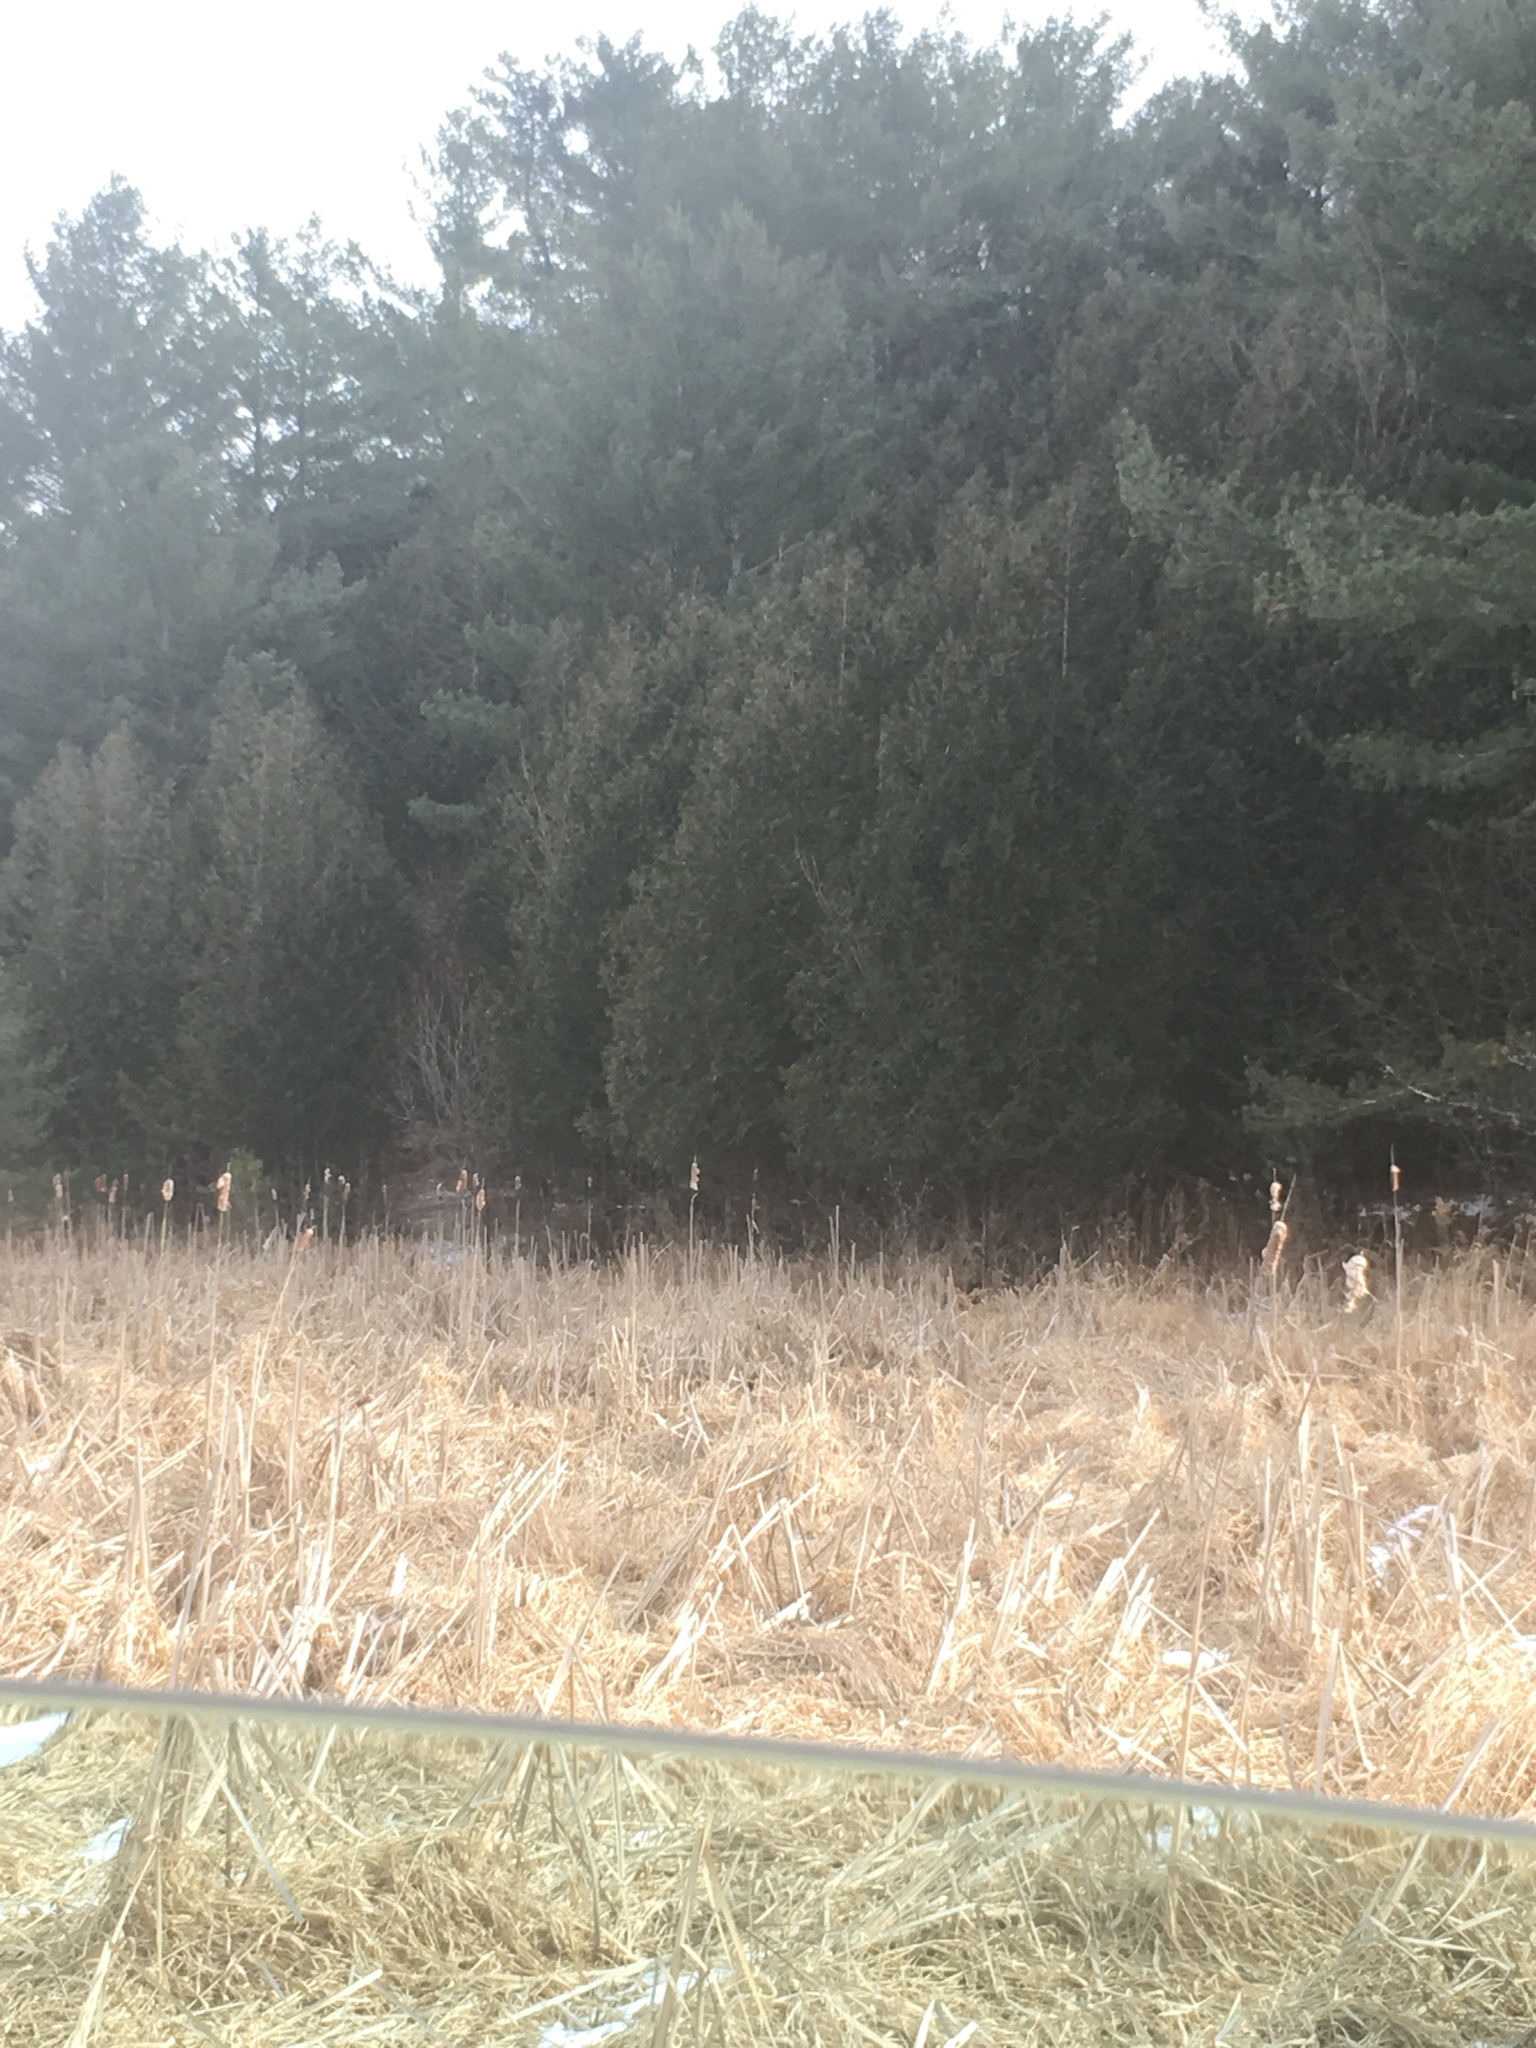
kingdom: Plantae
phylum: Tracheophyta
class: Pinopsida
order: Pinales
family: Cupressaceae
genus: Thuja
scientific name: Thuja occidentalis
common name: Northern white-cedar
